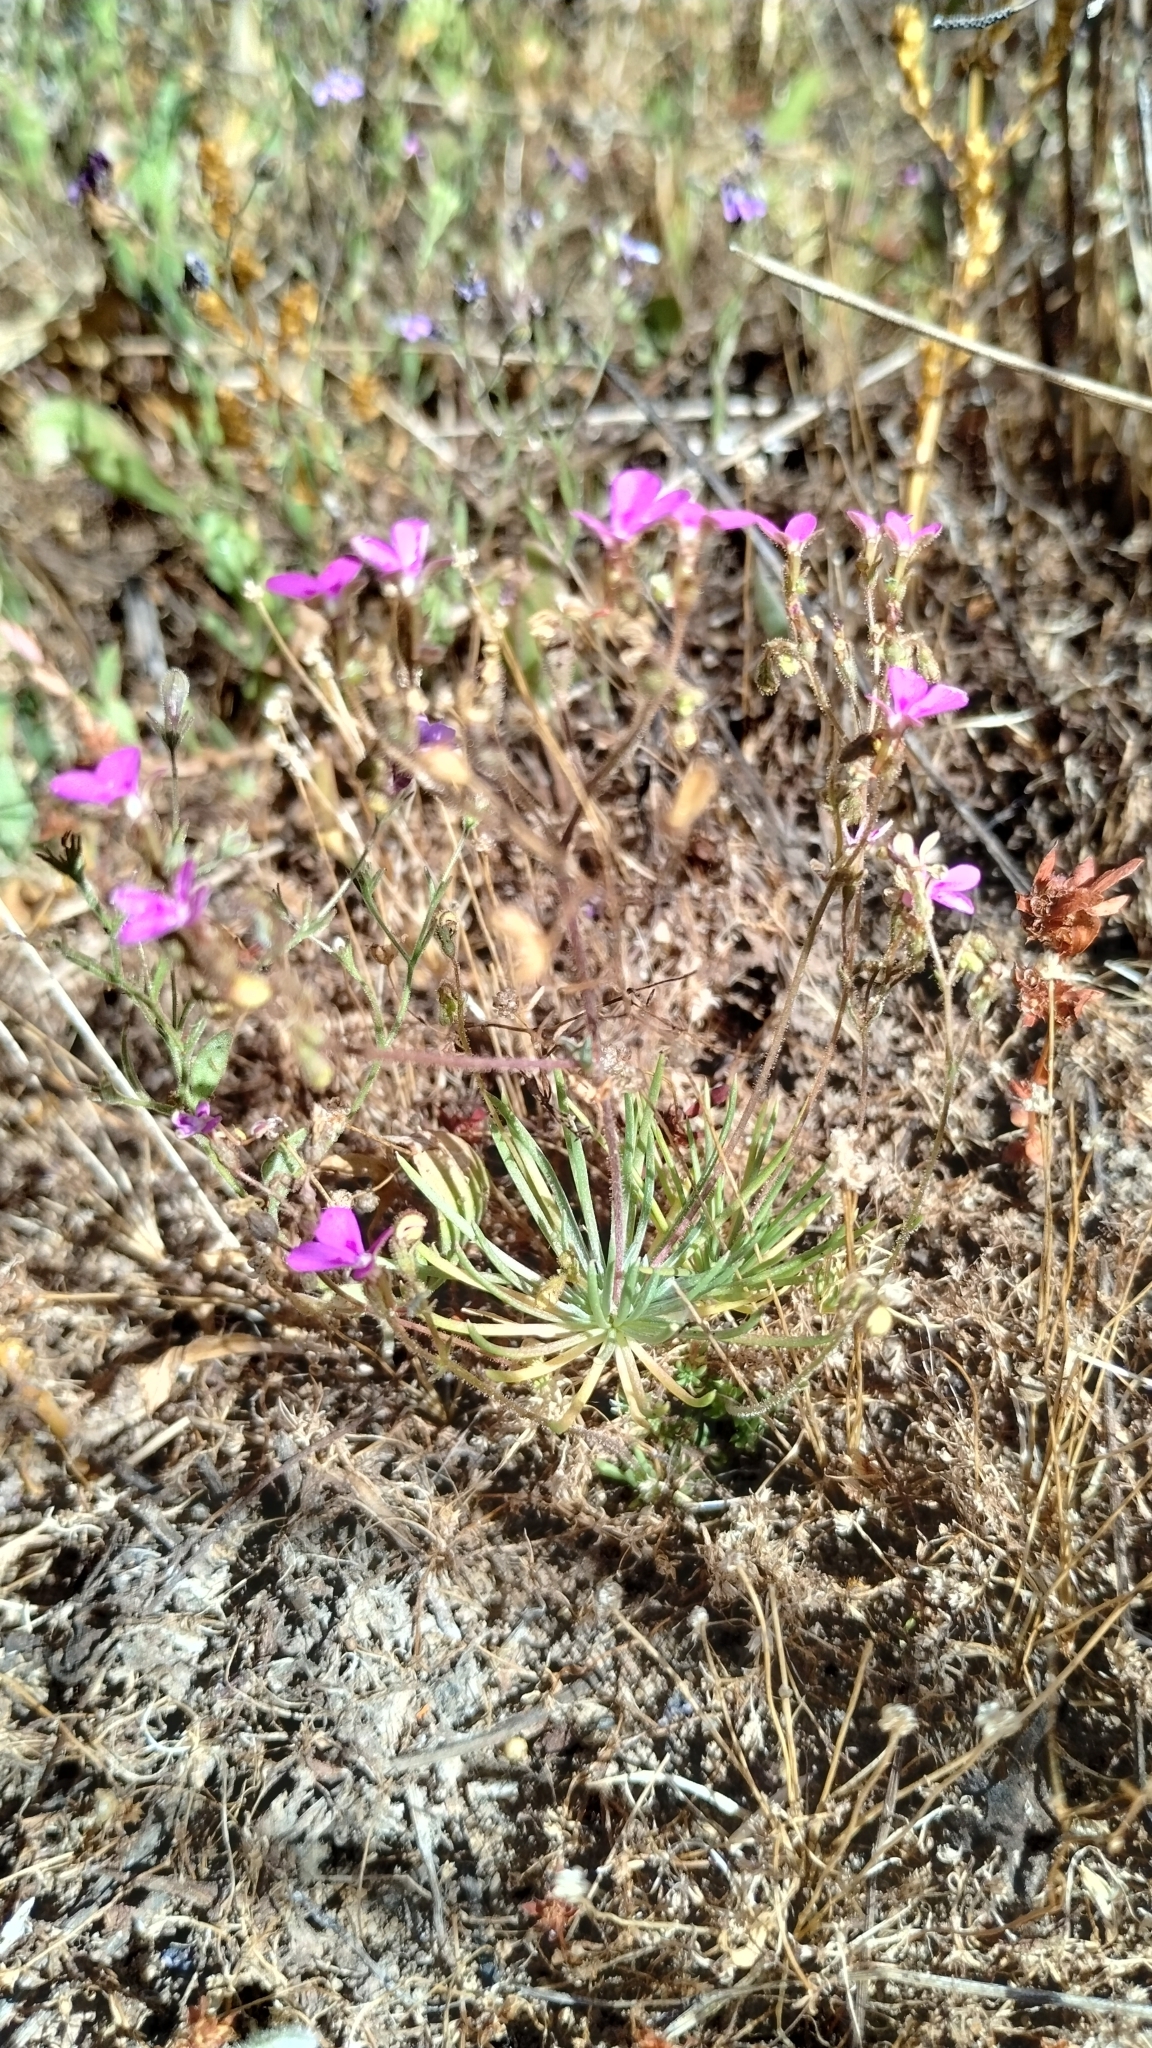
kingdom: Plantae
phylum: Tracheophyta
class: Magnoliopsida
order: Asterales
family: Stylidiaceae
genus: Stylidium
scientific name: Stylidium floodii
